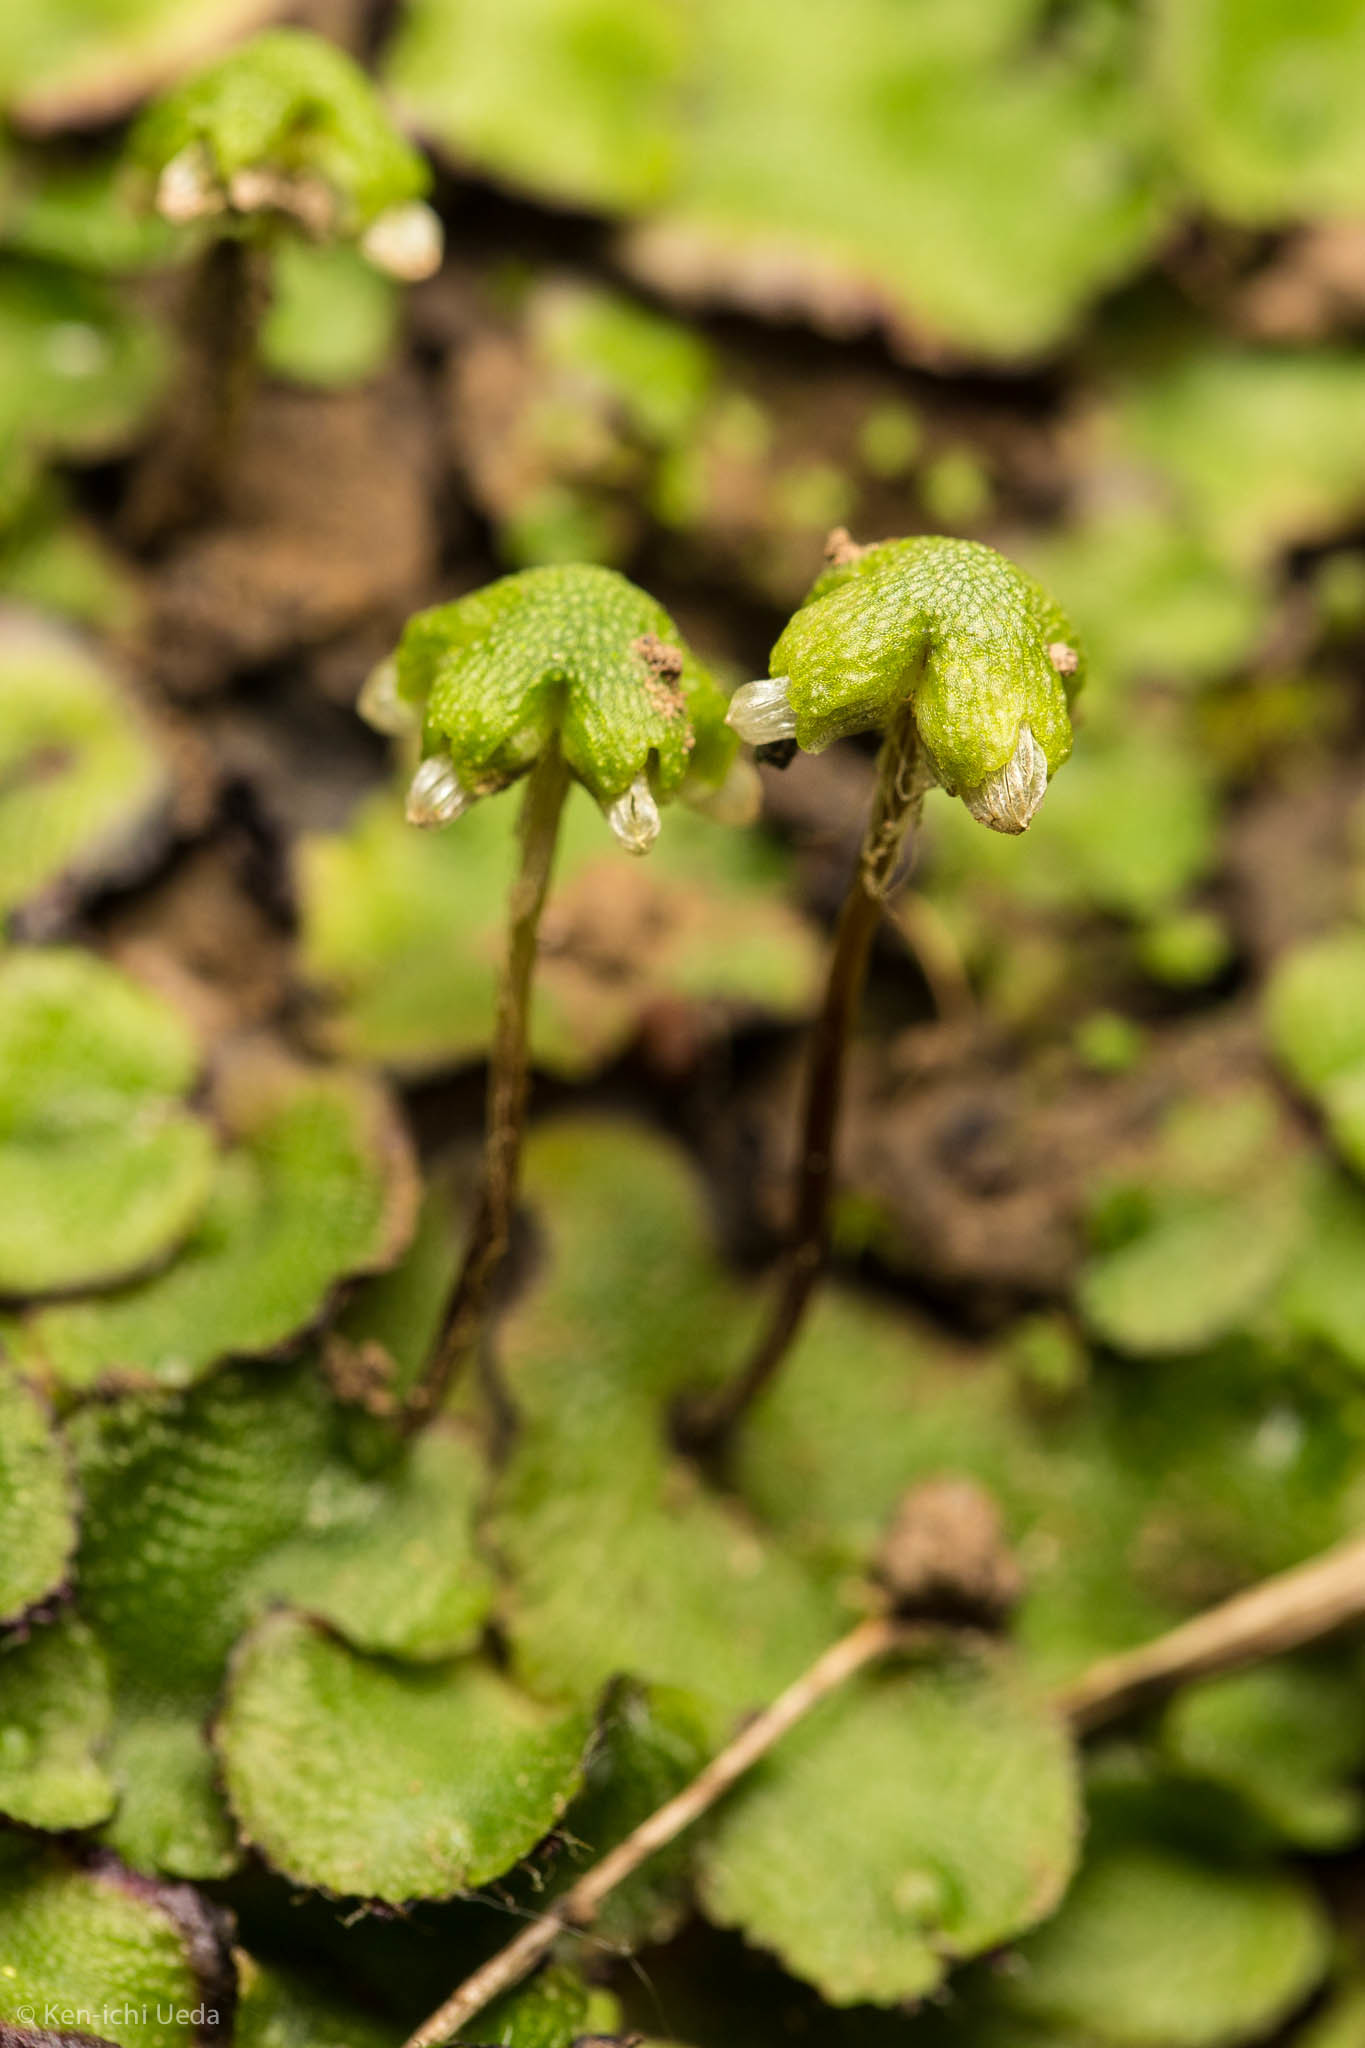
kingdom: Plantae
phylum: Marchantiophyta
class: Marchantiopsida
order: Marchantiales
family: Aytoniaceae
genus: Asterella
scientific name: Asterella californica
